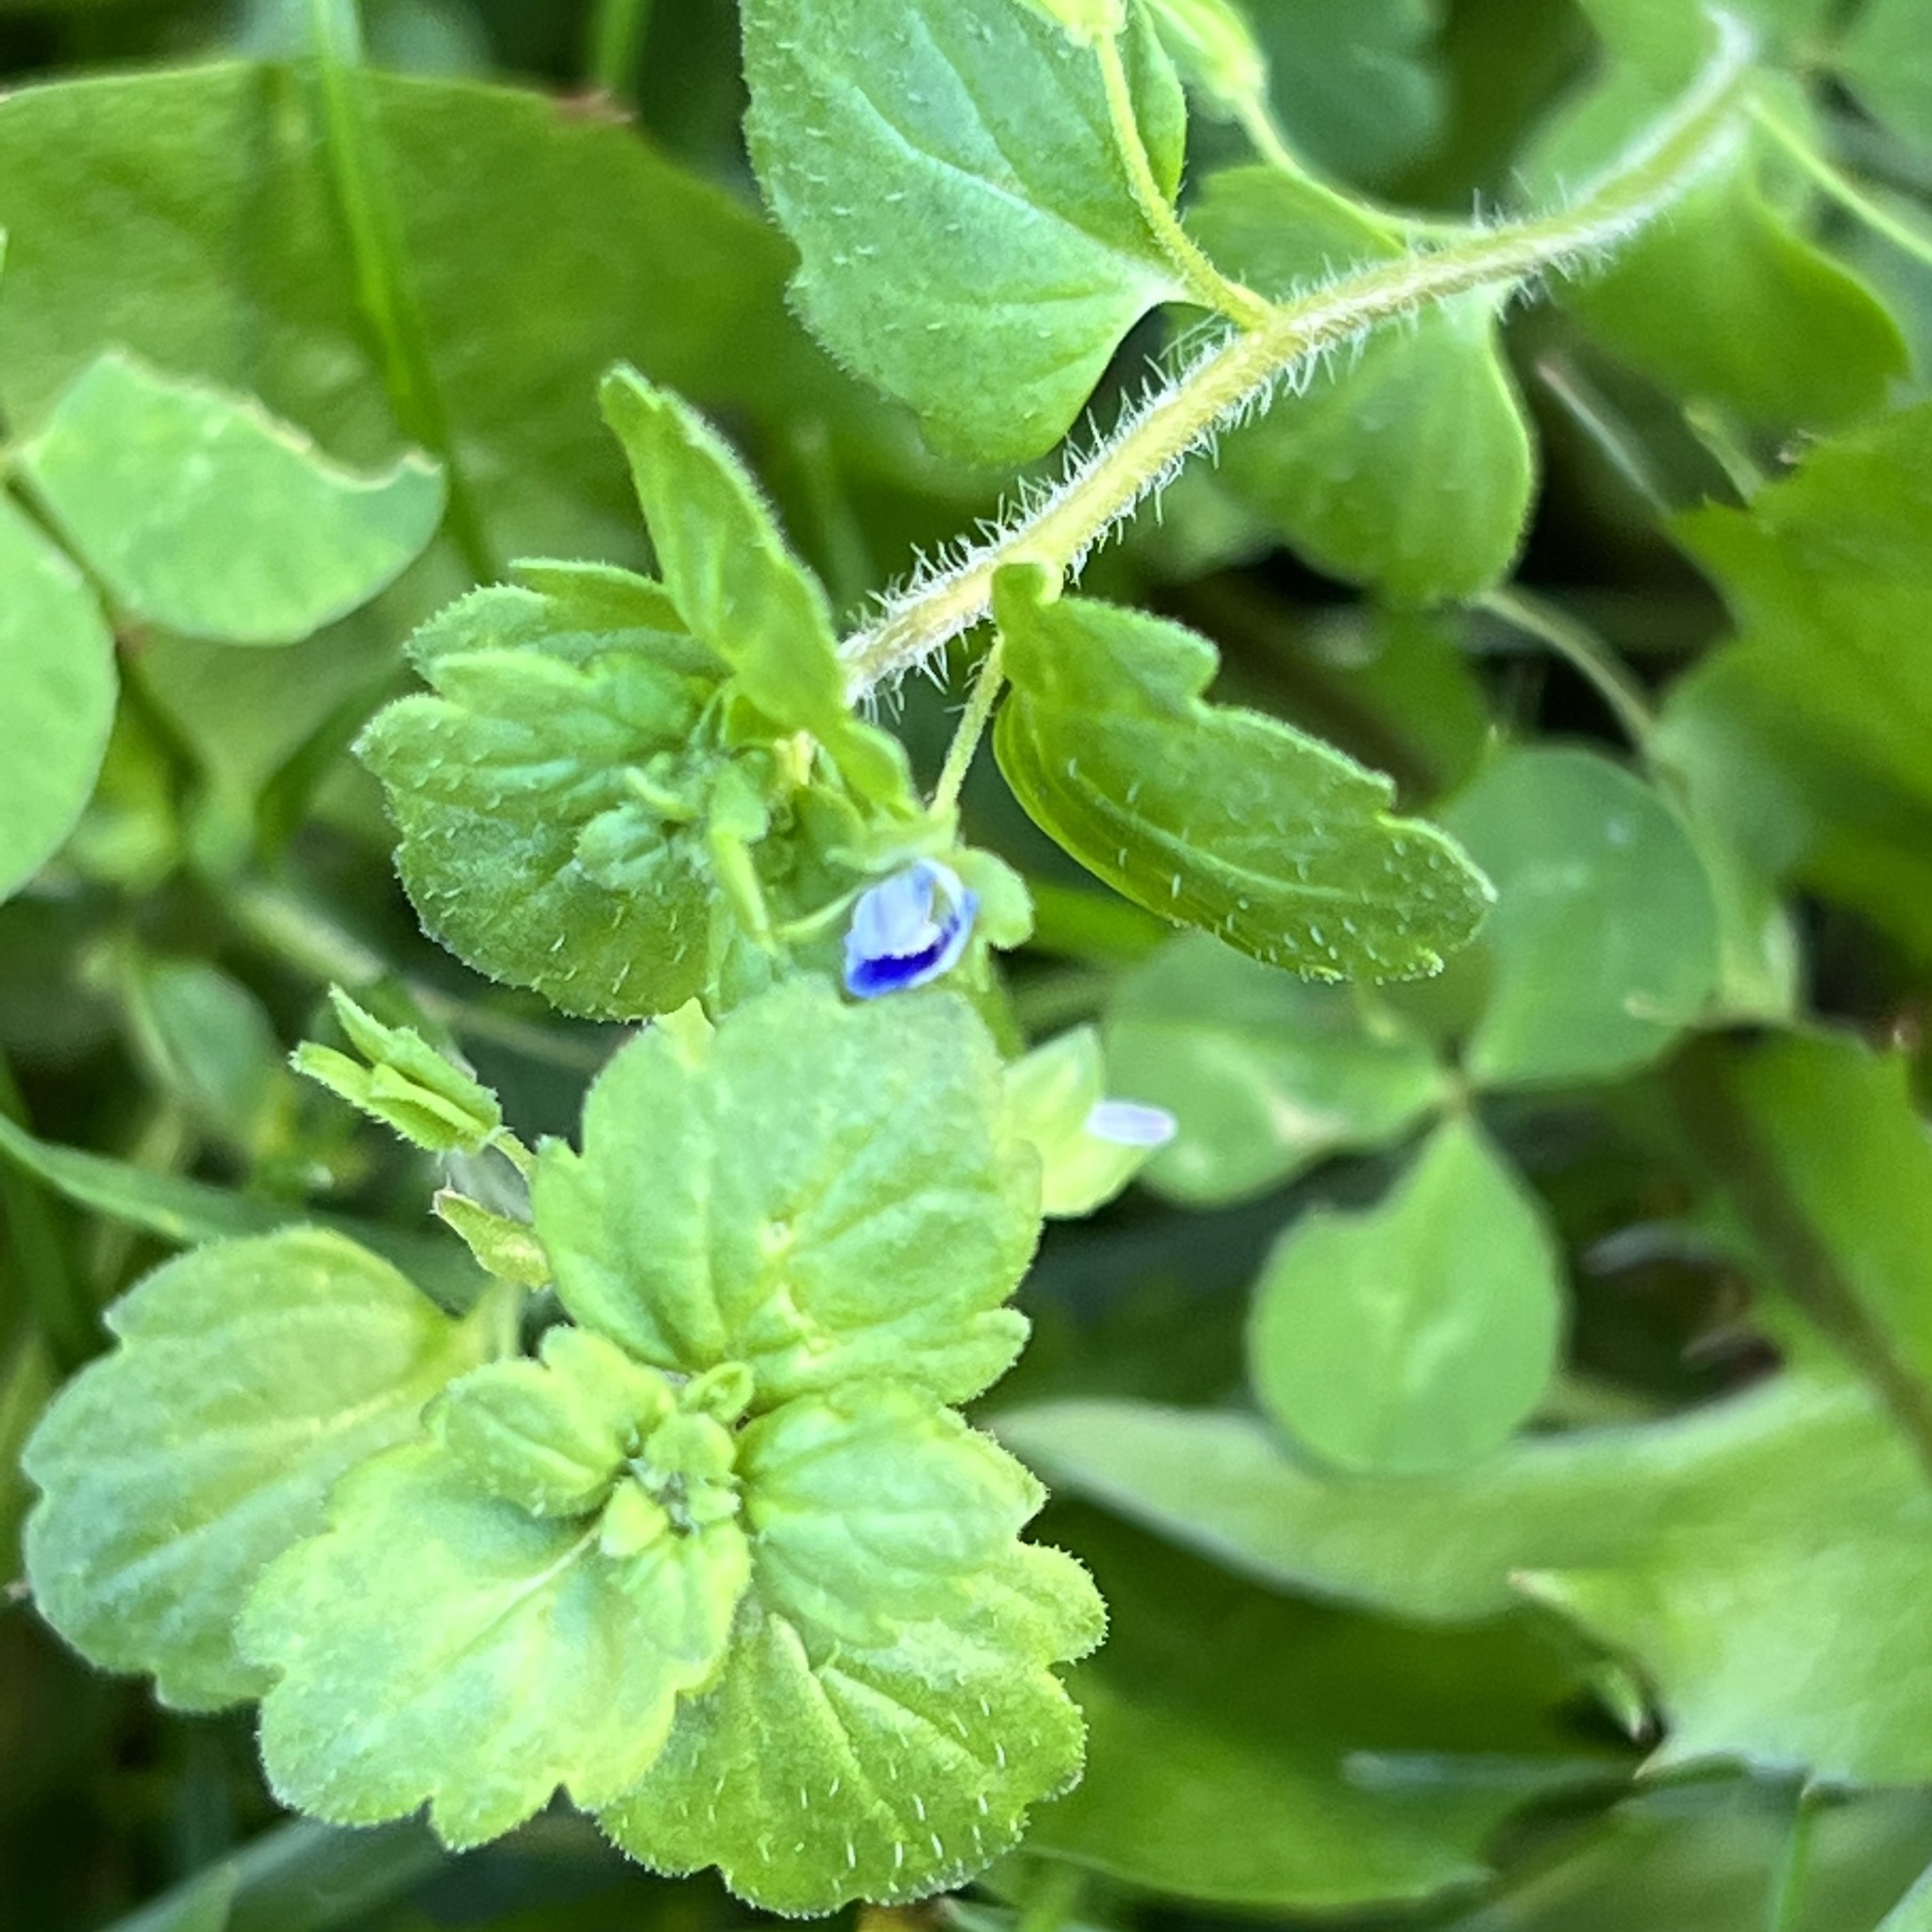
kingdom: Plantae
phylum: Tracheophyta
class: Magnoliopsida
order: Lamiales
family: Plantaginaceae
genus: Veronica
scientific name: Veronica persica
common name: Common field-speedwell
